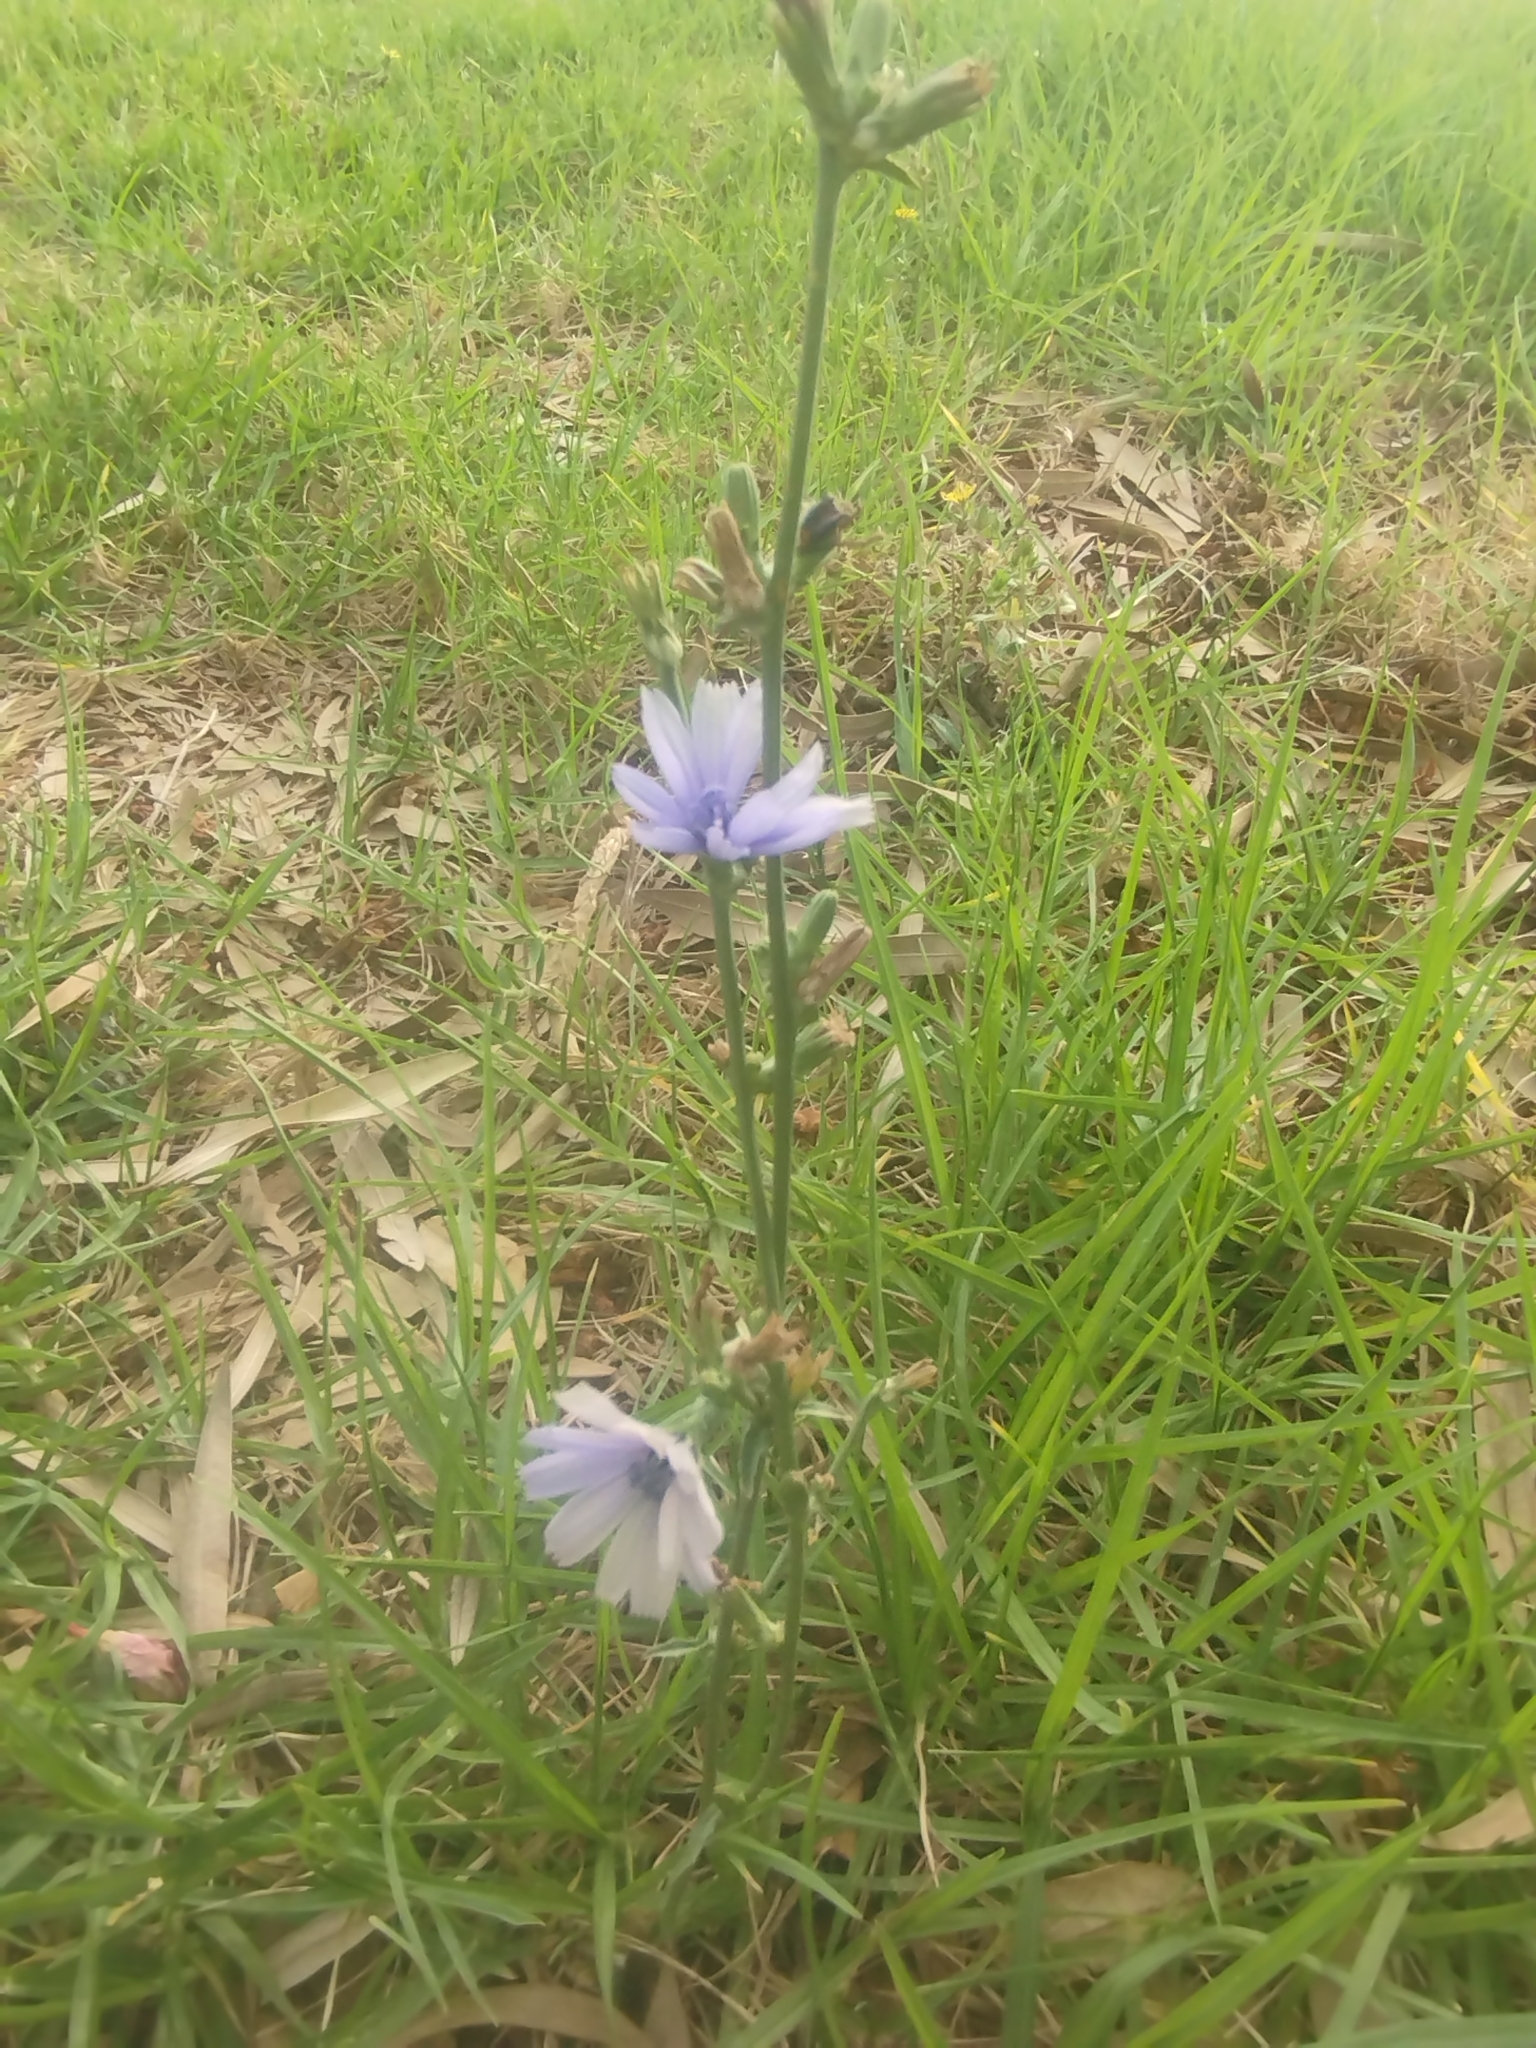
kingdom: Plantae
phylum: Tracheophyta
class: Magnoliopsida
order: Asterales
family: Asteraceae
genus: Cichorium
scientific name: Cichorium intybus
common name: Chicory
